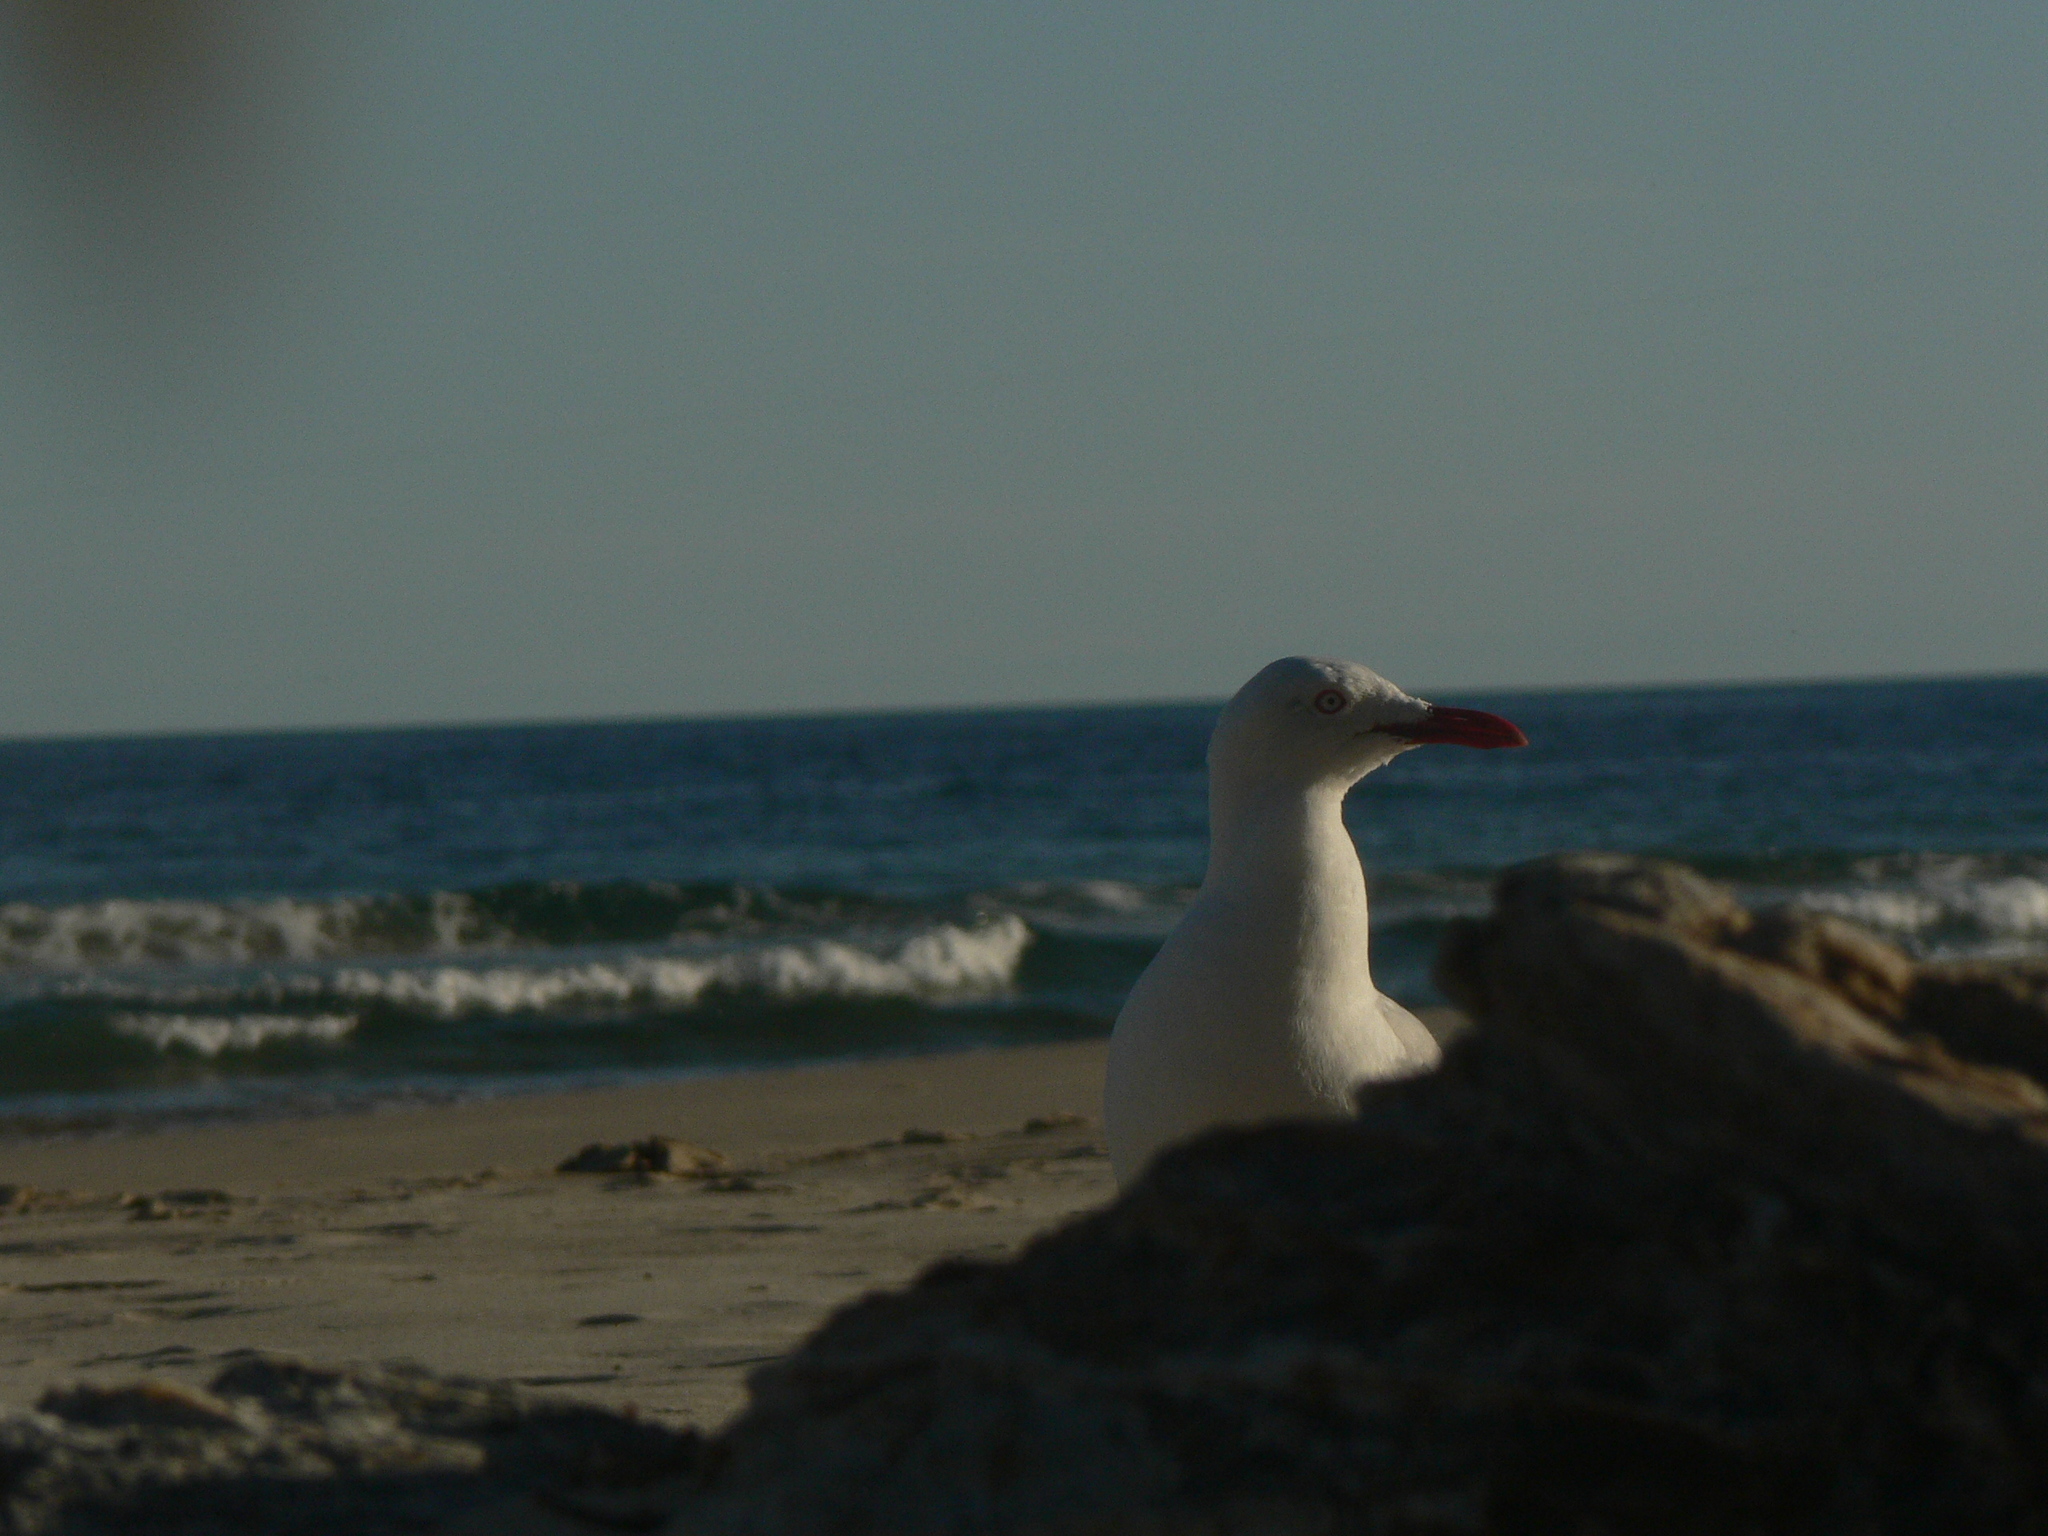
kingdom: Animalia
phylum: Chordata
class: Aves
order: Charadriiformes
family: Laridae
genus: Chroicocephalus
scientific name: Chroicocephalus novaehollandiae
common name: Silver gull
